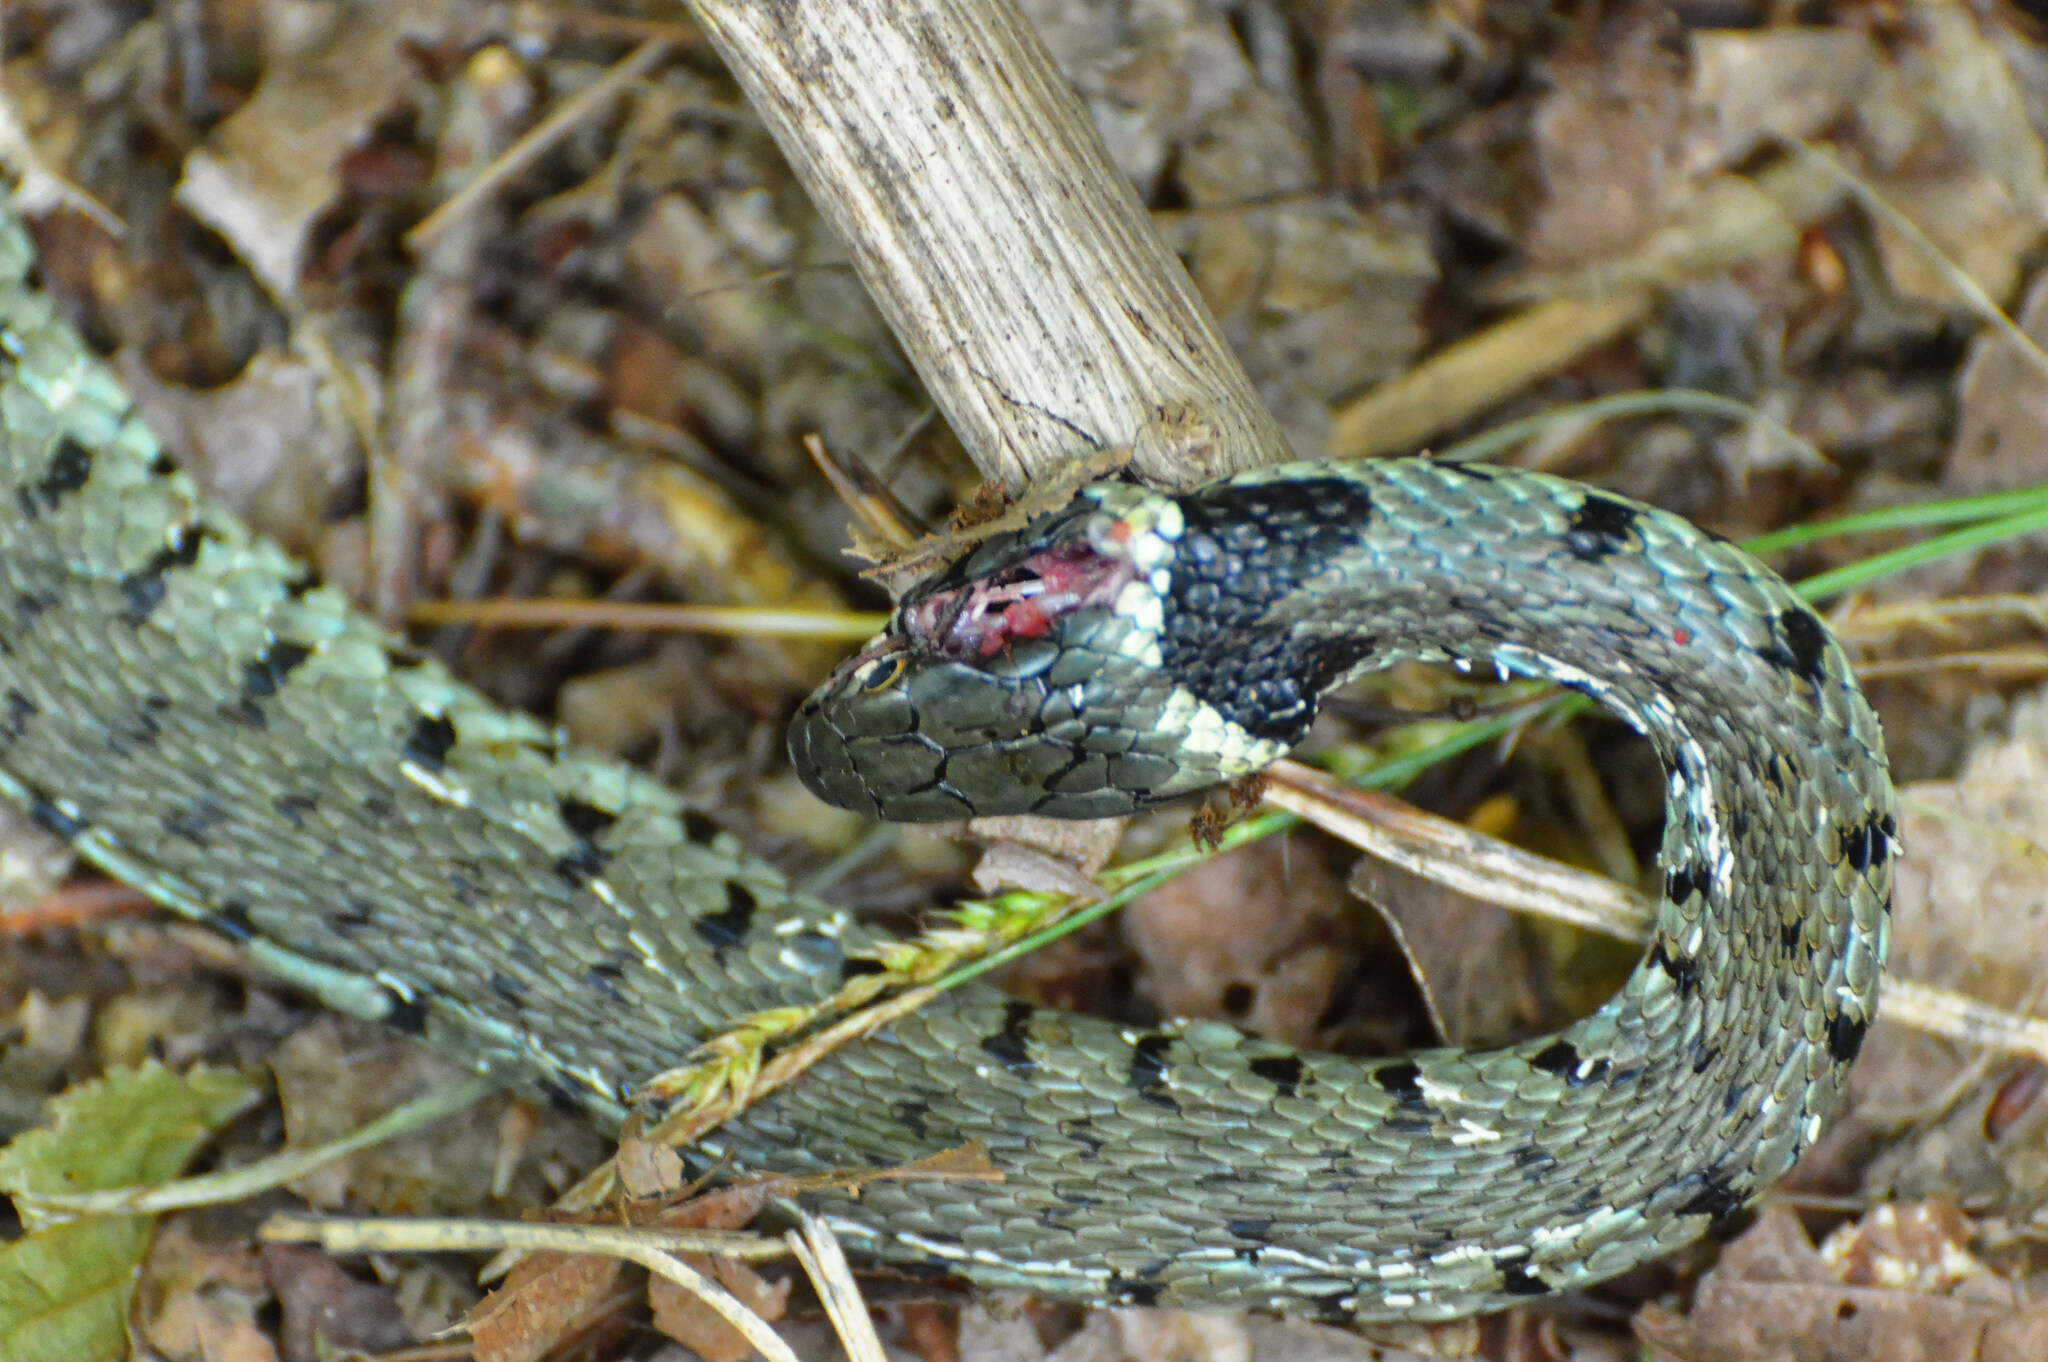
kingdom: Animalia
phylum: Chordata
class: Squamata
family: Colubridae
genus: Natrix
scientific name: Natrix helvetica
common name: Banded grass snake
